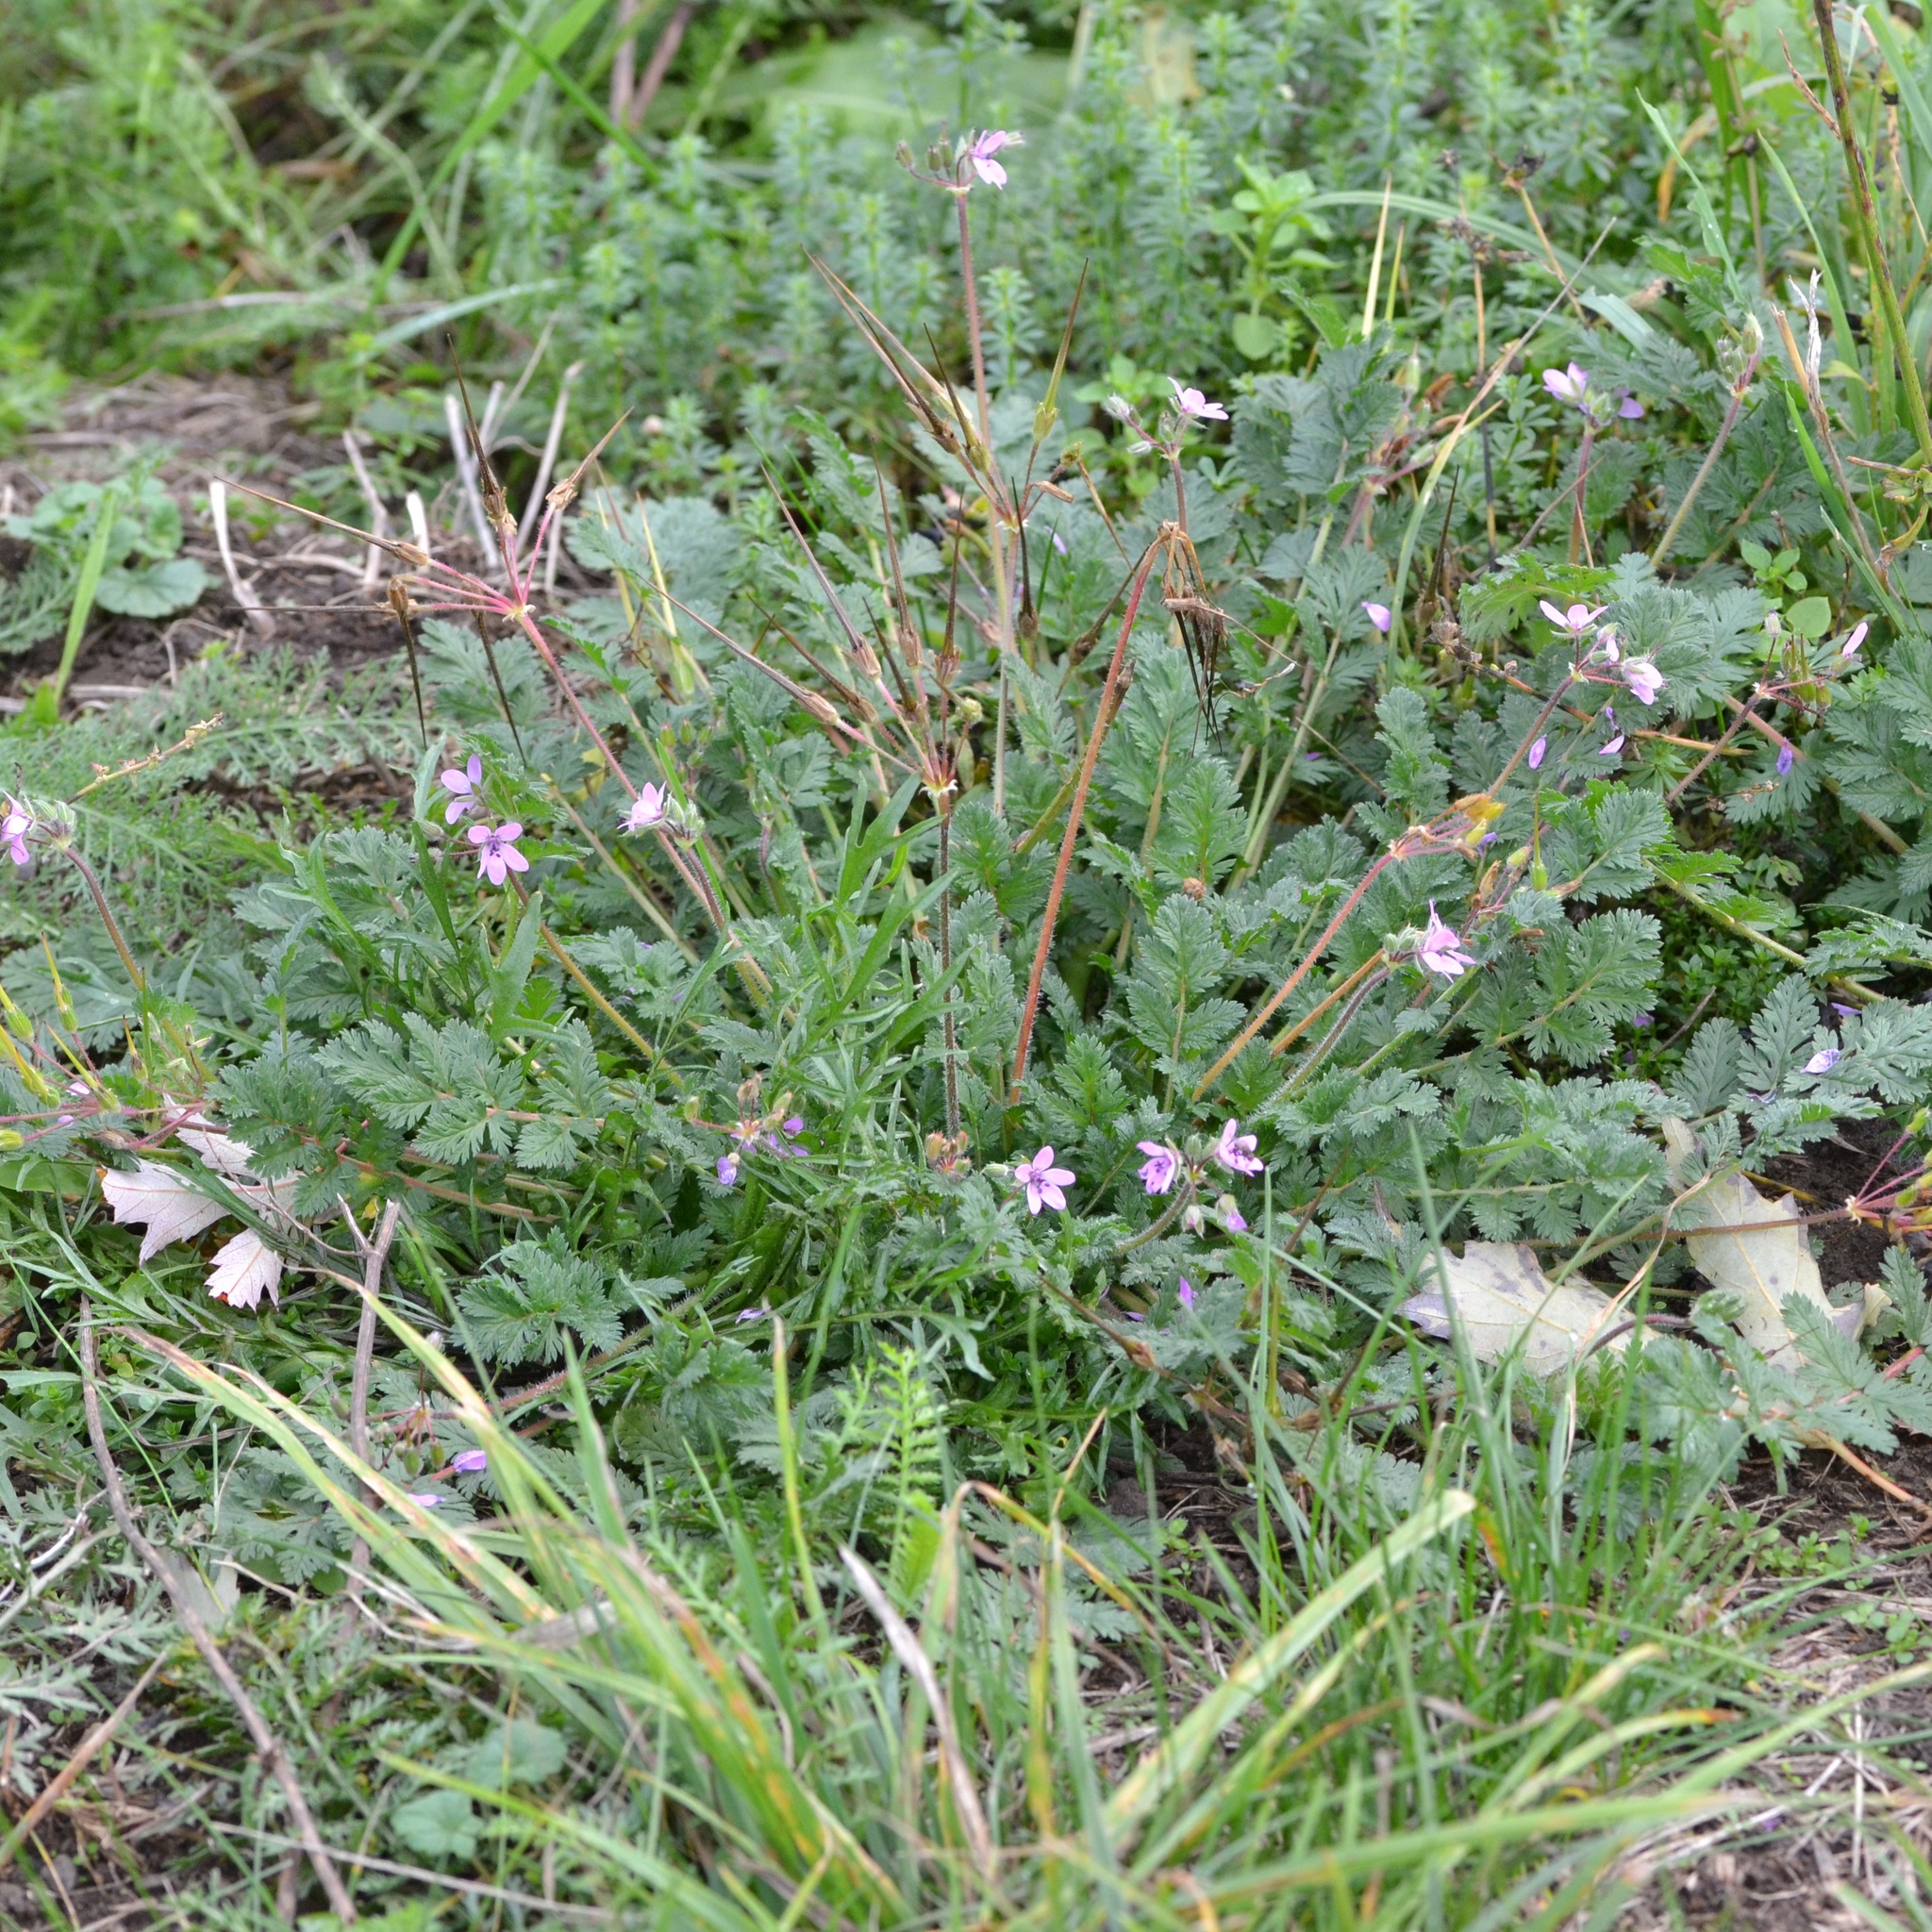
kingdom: Plantae
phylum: Tracheophyta
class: Magnoliopsida
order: Geraniales
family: Geraniaceae
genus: Erodium
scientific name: Erodium cicutarium
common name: Common stork's-bill
